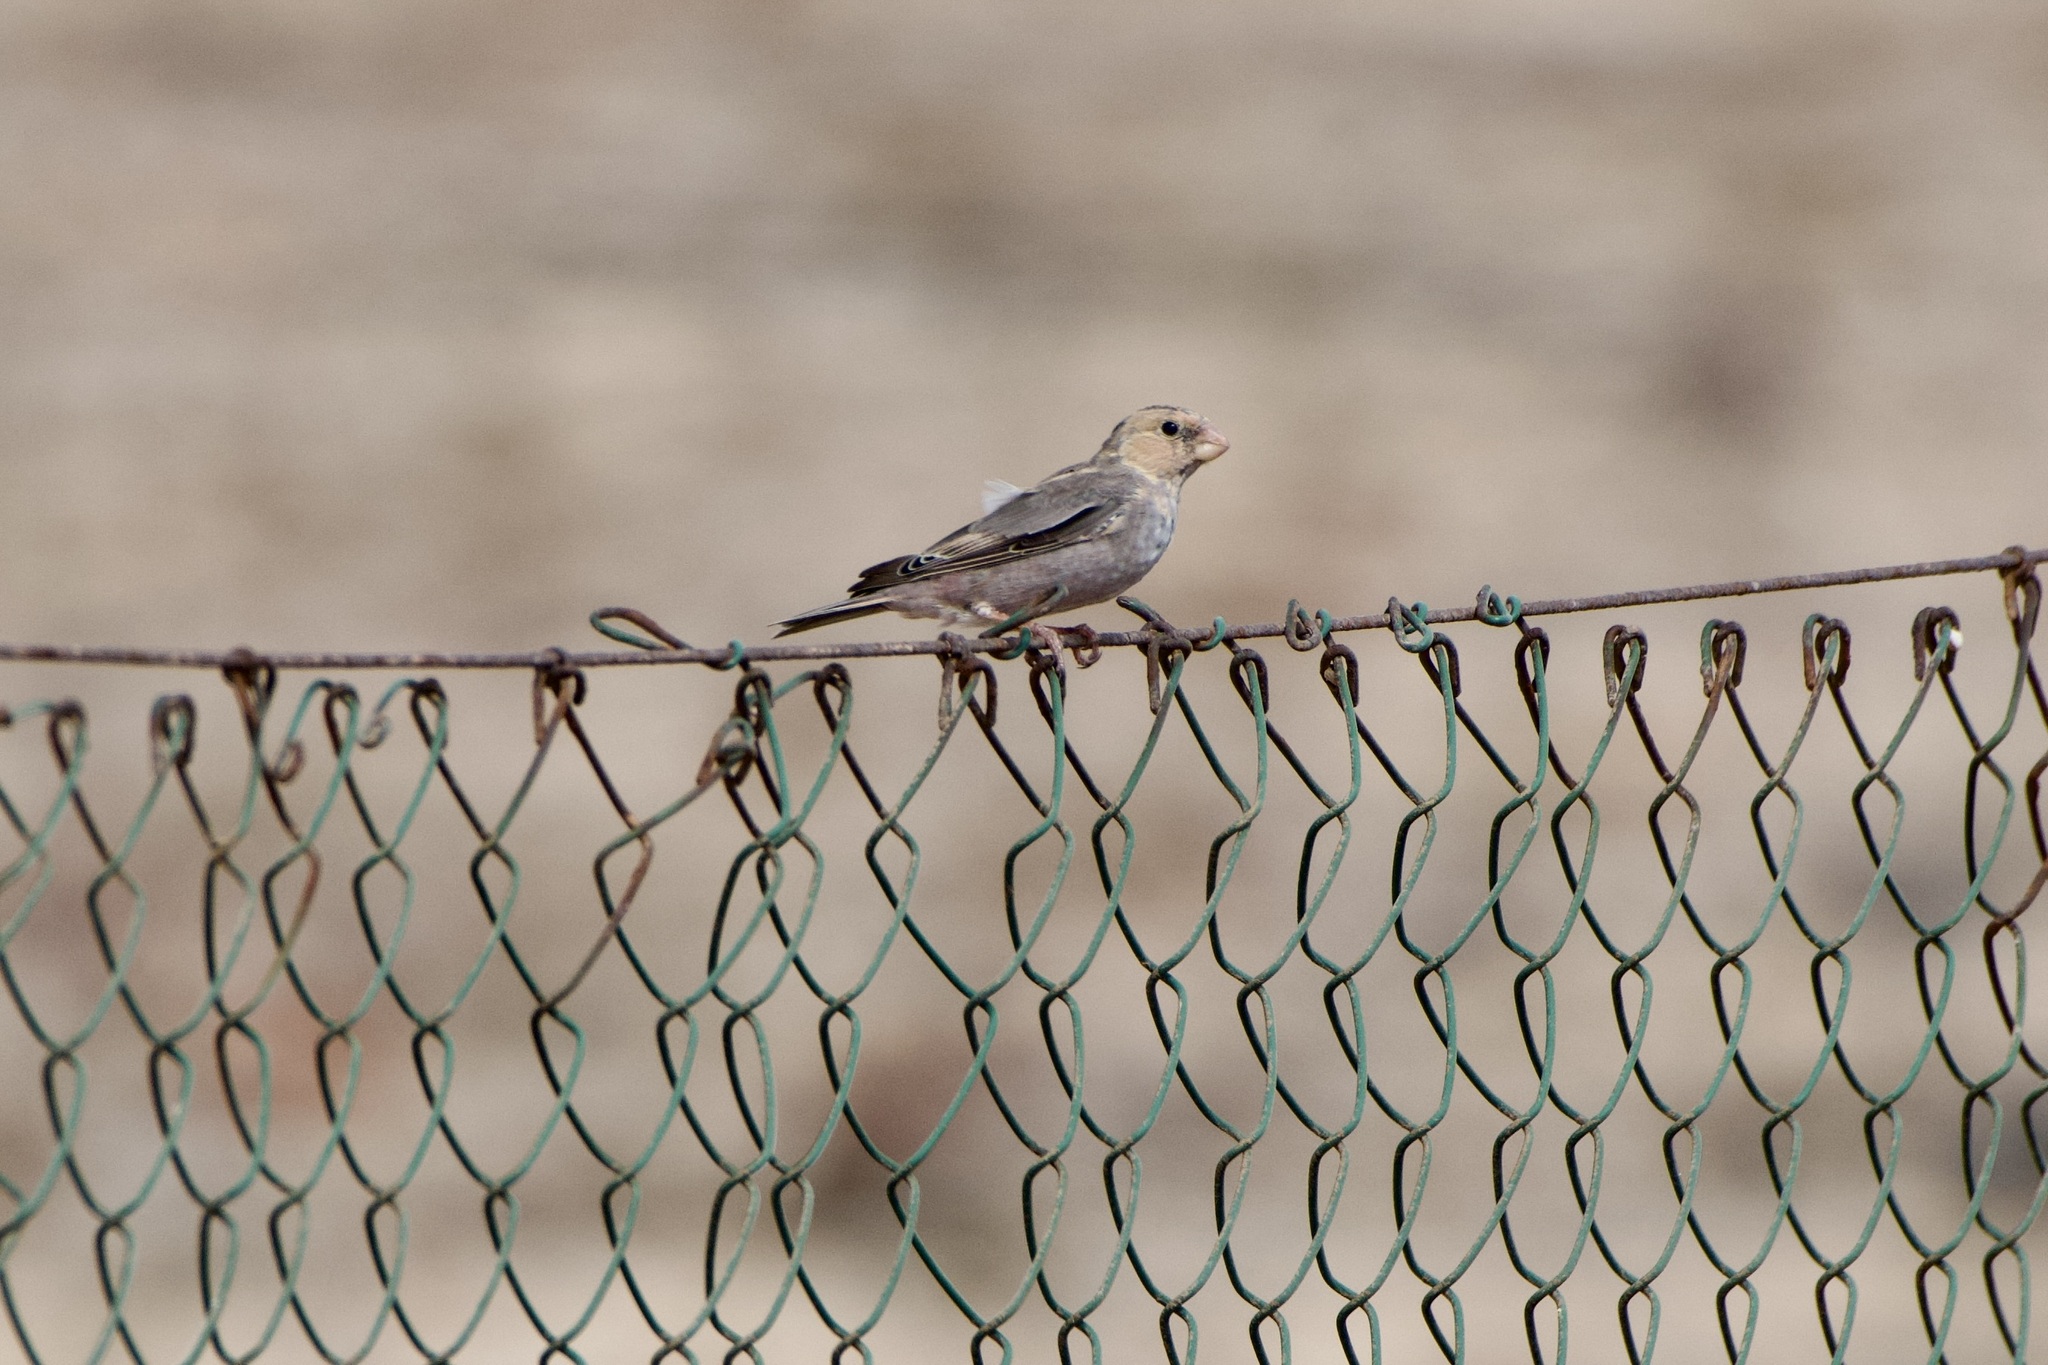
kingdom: Animalia
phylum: Chordata
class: Aves
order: Passeriformes
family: Fringillidae
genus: Bucanetes
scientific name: Bucanetes githagineus
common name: Trumpeter finch
